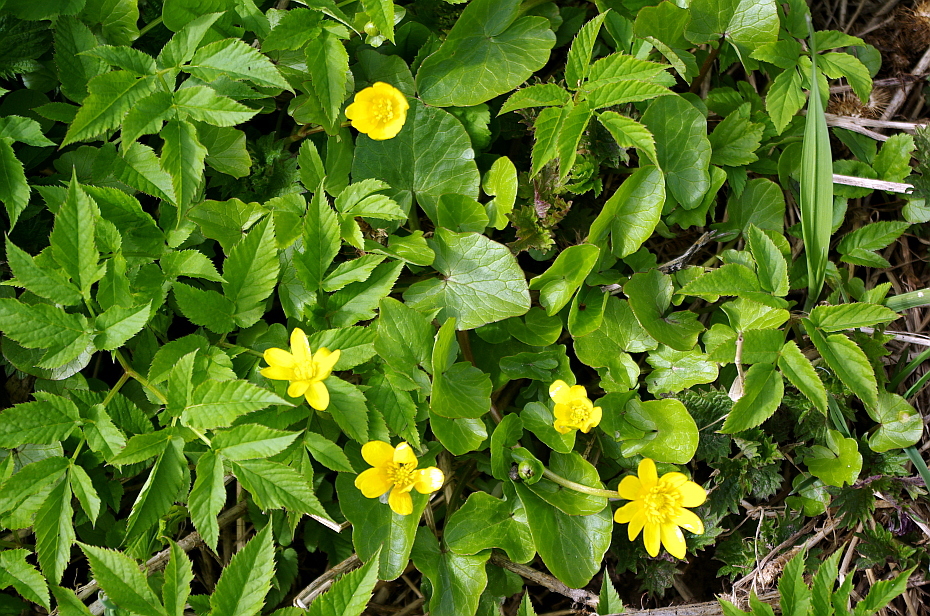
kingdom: Plantae
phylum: Tracheophyta
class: Magnoliopsida
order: Ranunculales
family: Ranunculaceae
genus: Ficaria
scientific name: Ficaria verna
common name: Lesser celandine
